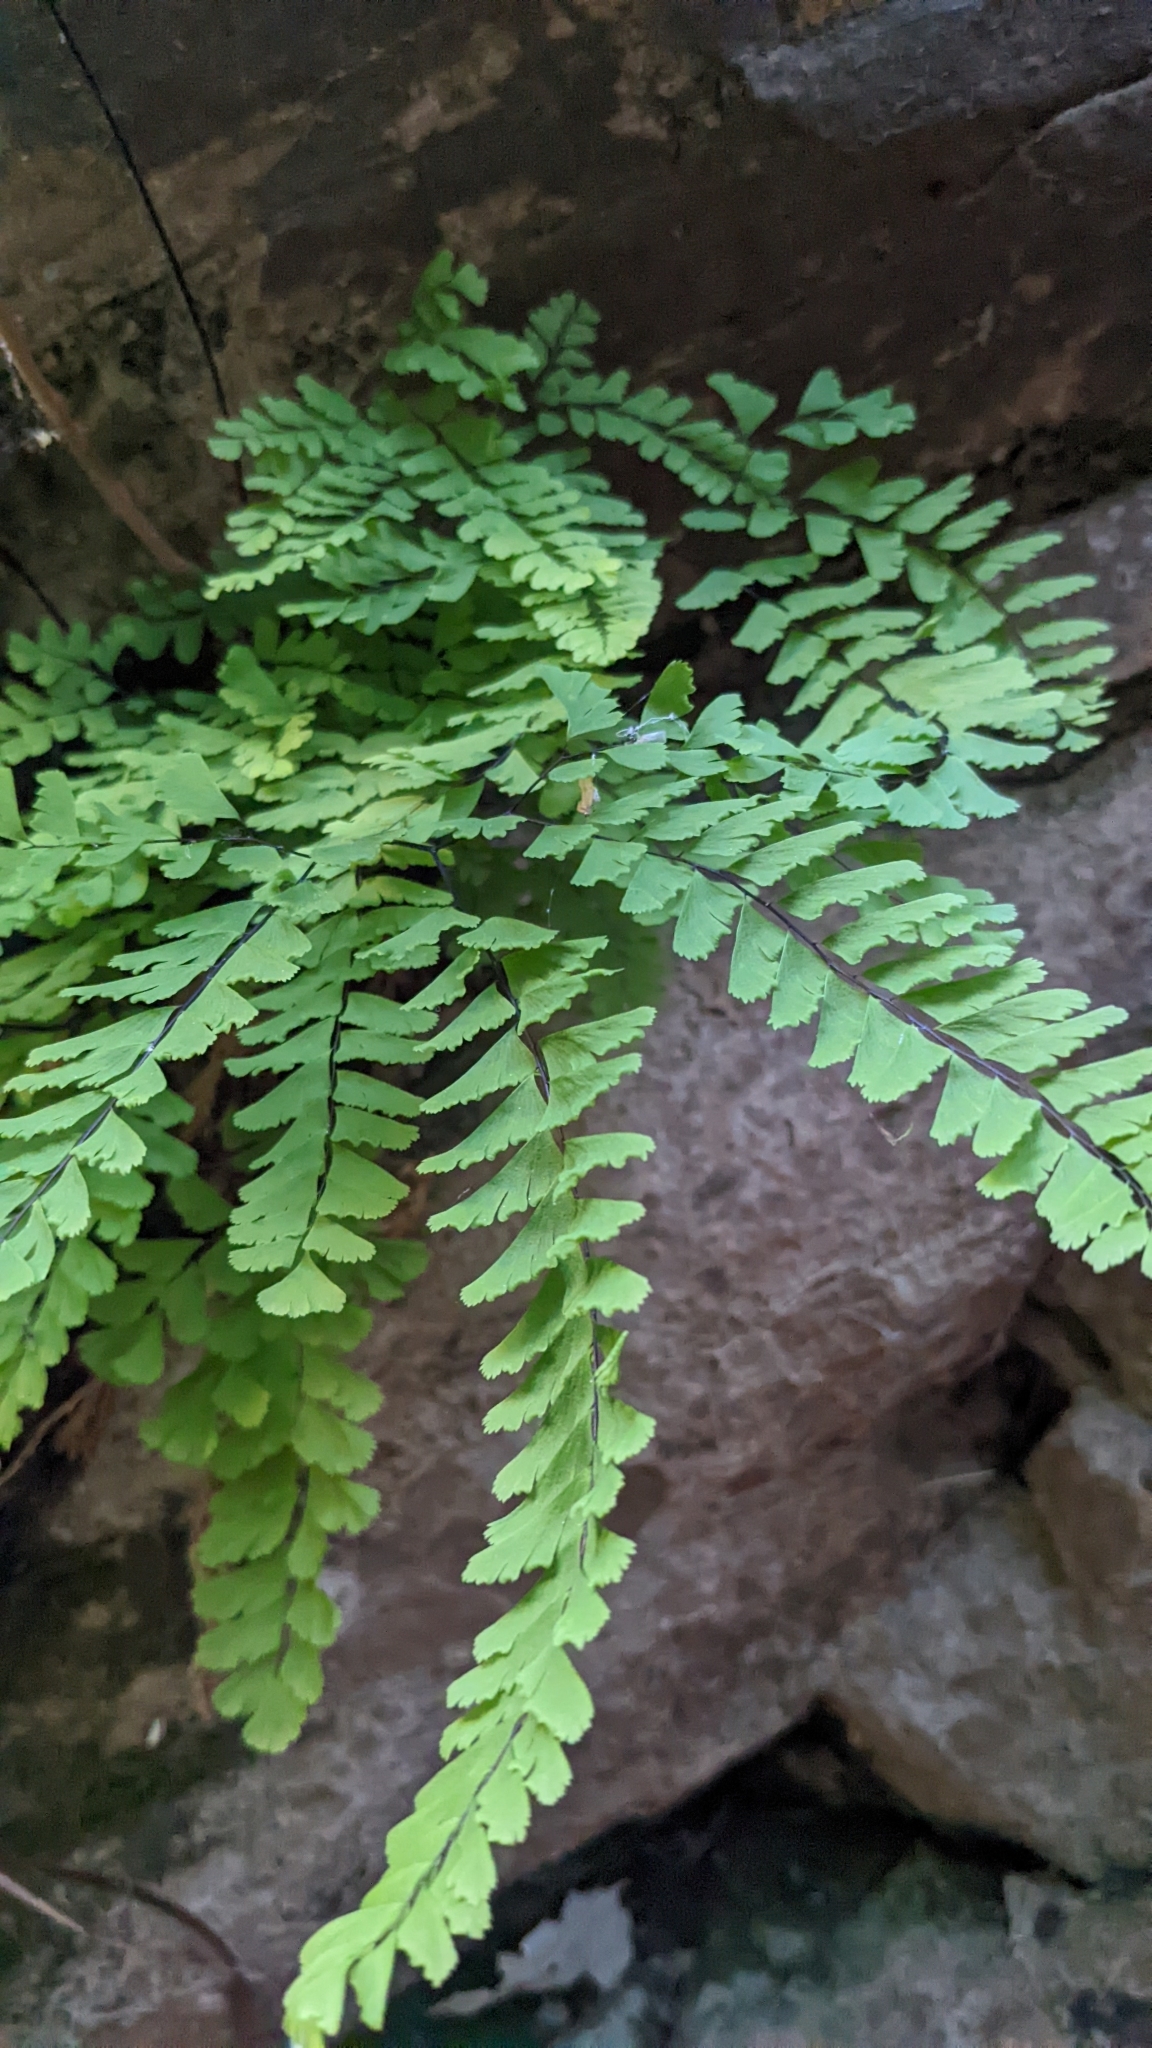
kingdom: Plantae
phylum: Tracheophyta
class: Polypodiopsida
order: Polypodiales
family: Pteridaceae
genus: Adiantum
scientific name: Adiantum aleuticum
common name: Aleutian maidenhair fern
